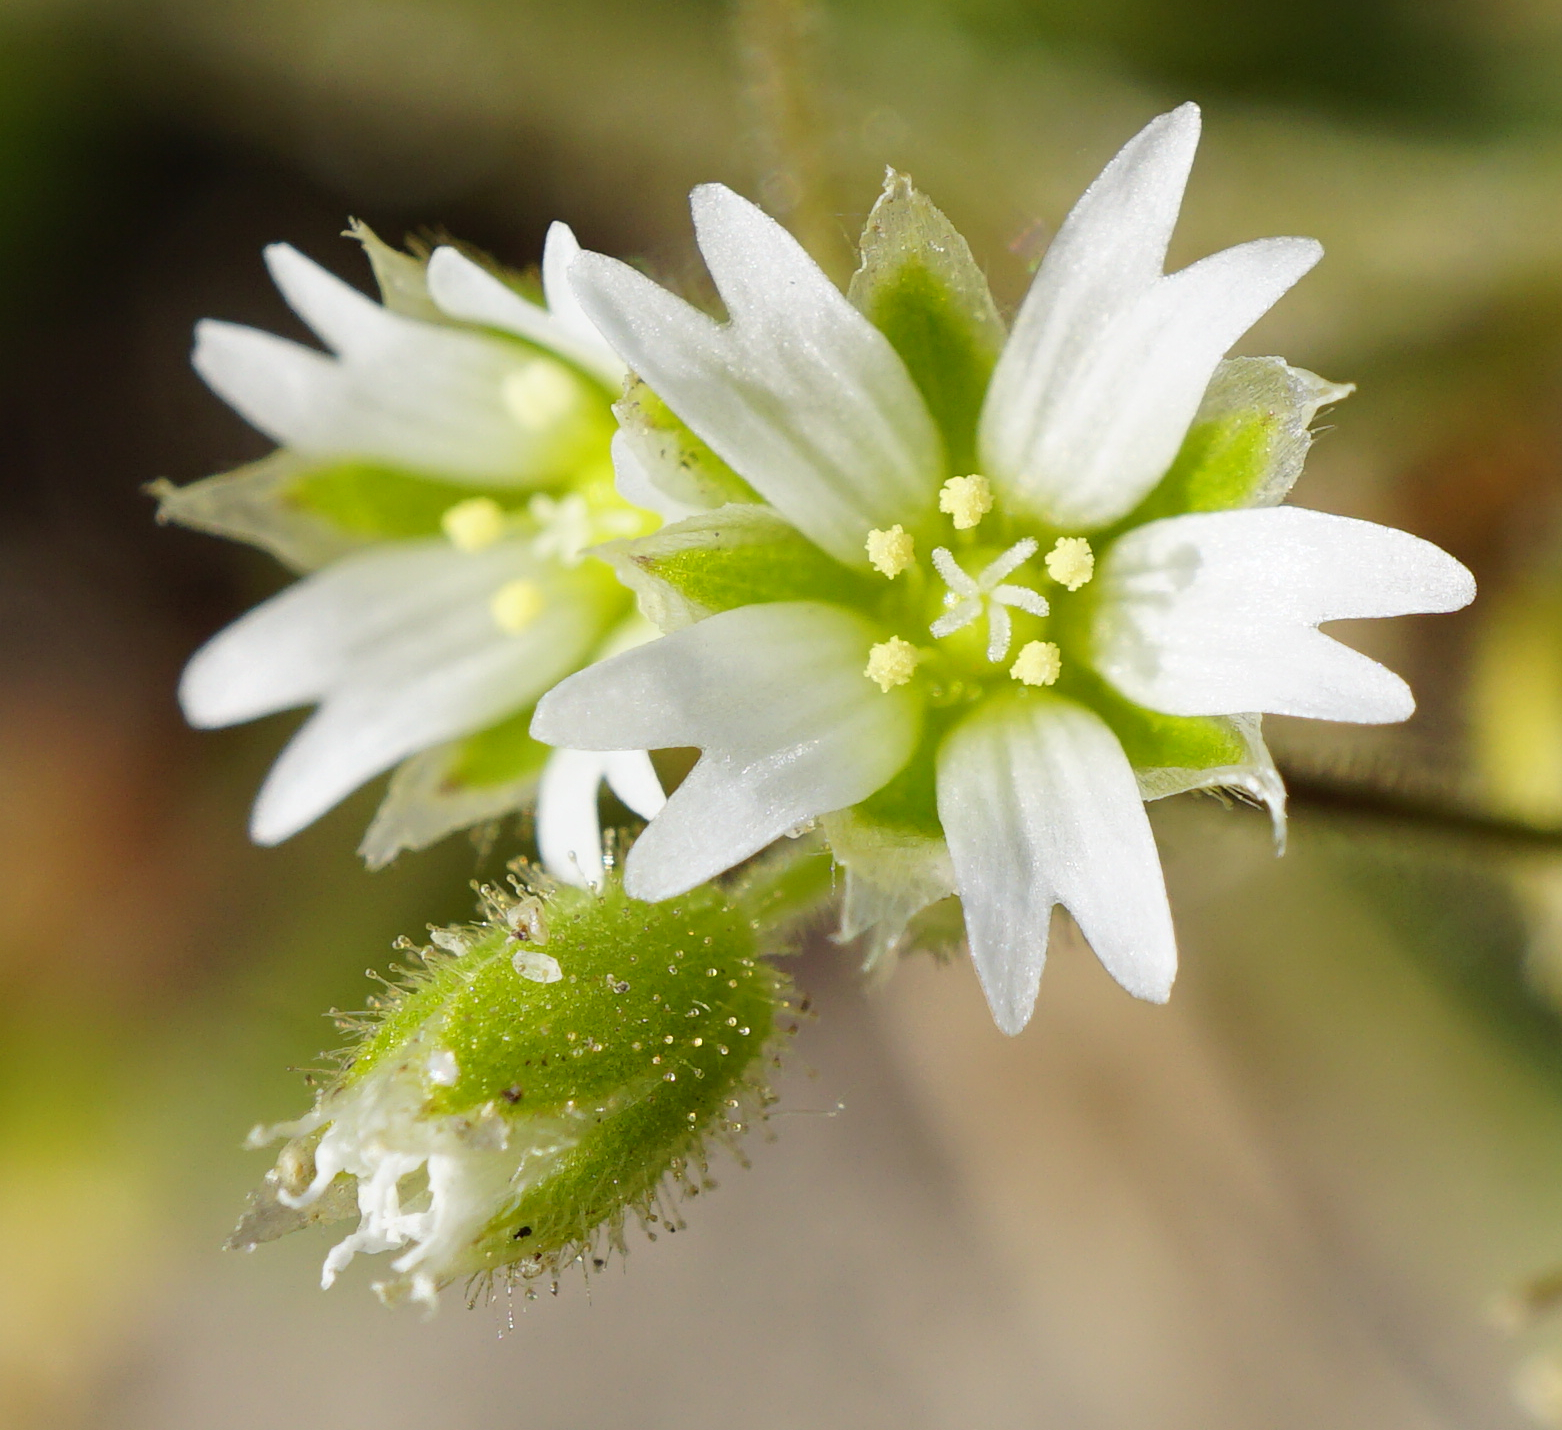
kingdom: Plantae
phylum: Tracheophyta
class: Magnoliopsida
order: Caryophyllales
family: Caryophyllaceae
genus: Cerastium
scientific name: Cerastium semidecandrum
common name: Little mouse-ear
